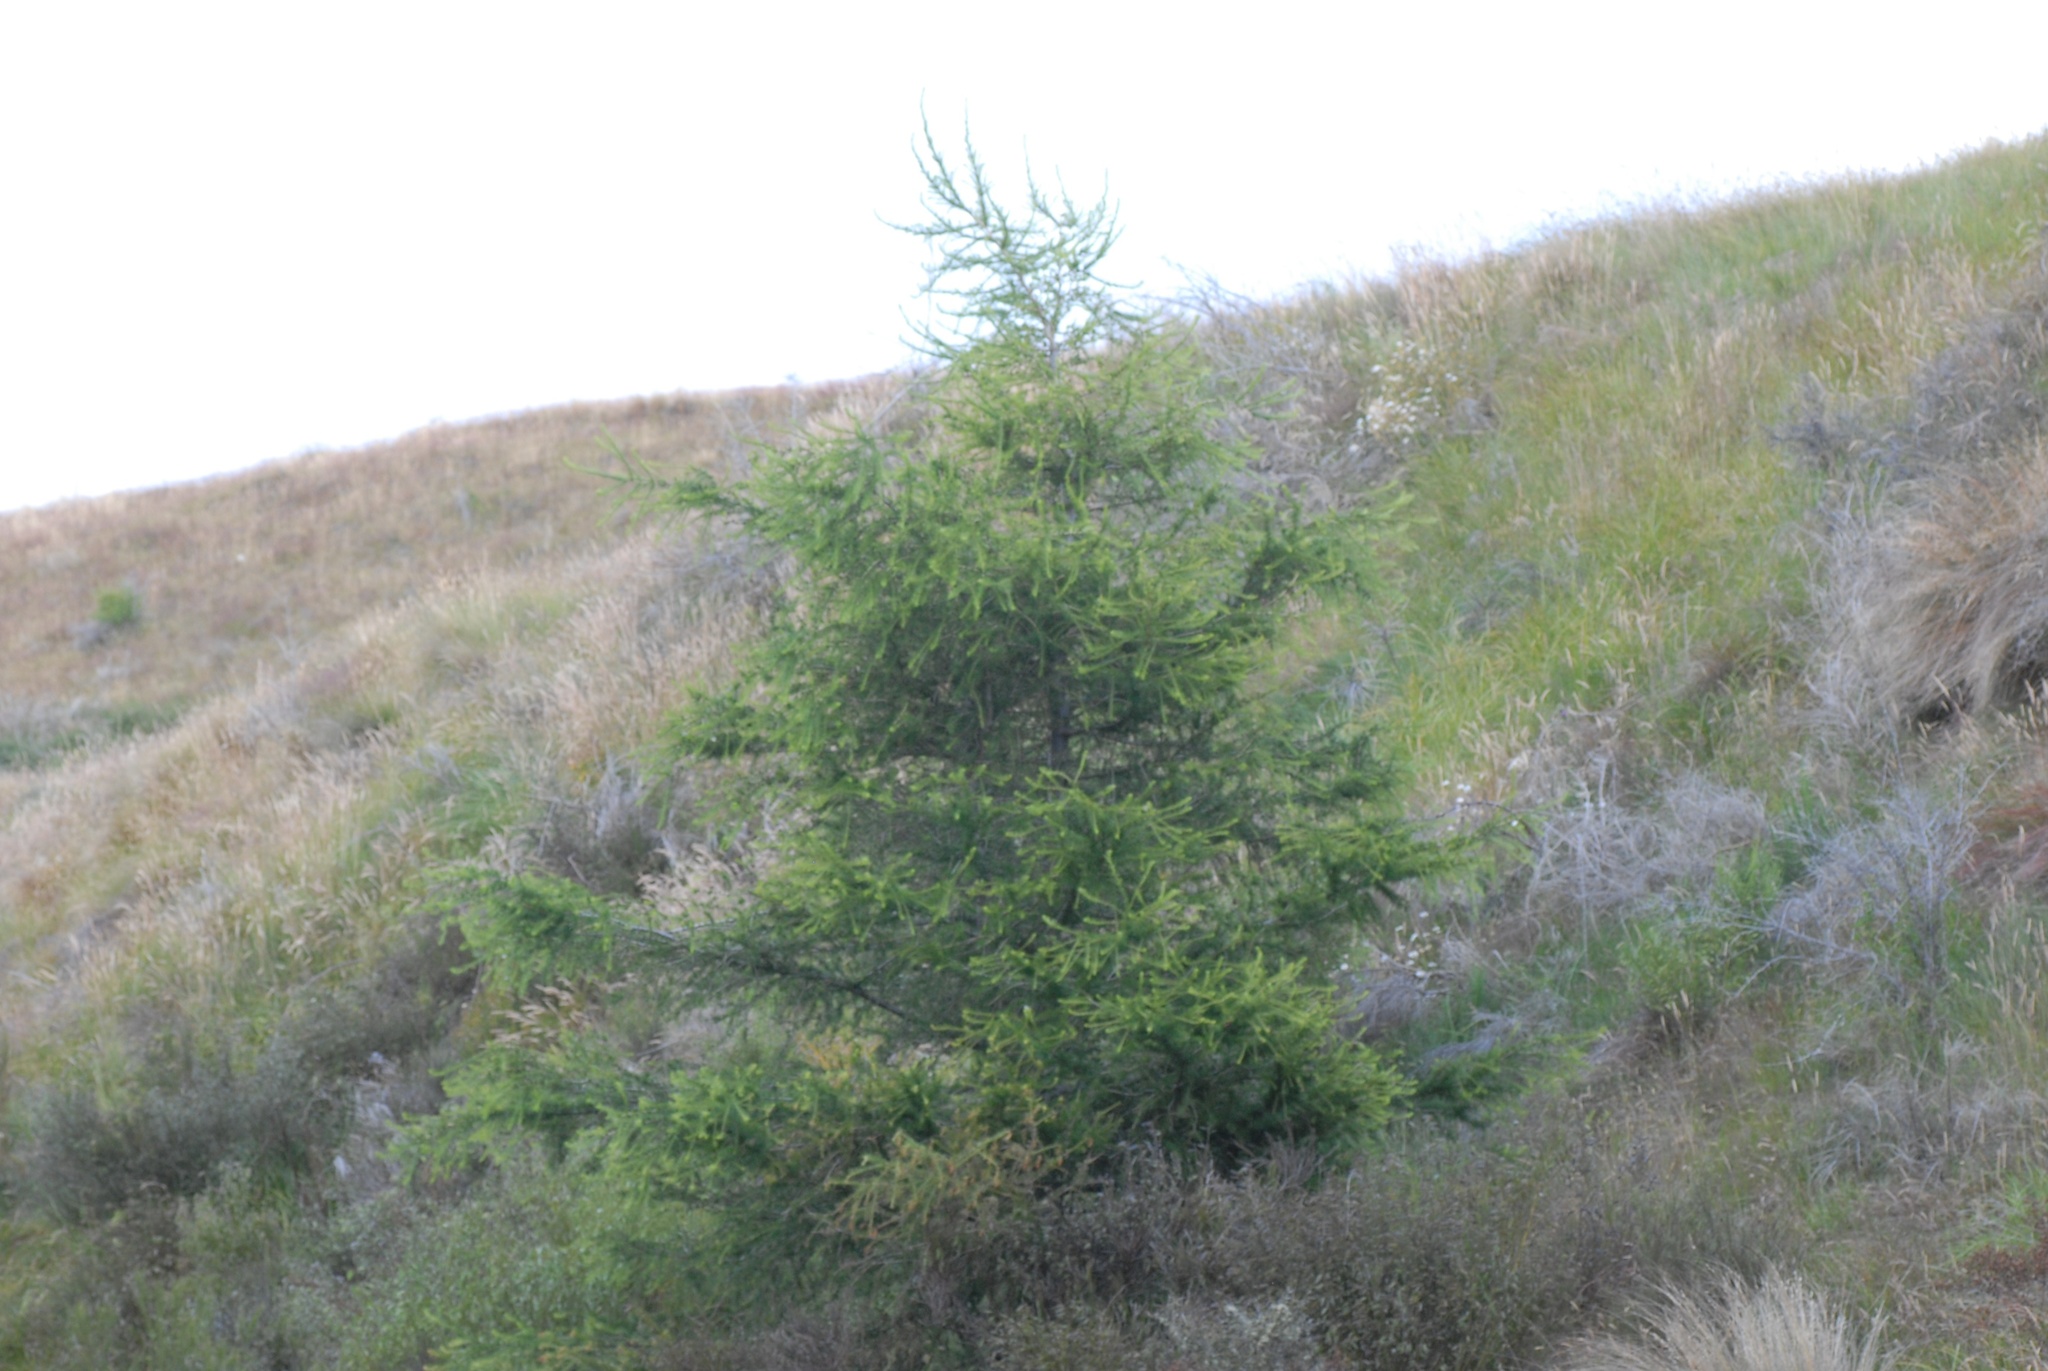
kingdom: Plantae
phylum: Tracheophyta
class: Pinopsida
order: Pinales
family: Pinaceae
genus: Larix
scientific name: Larix decidua
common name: European larch
